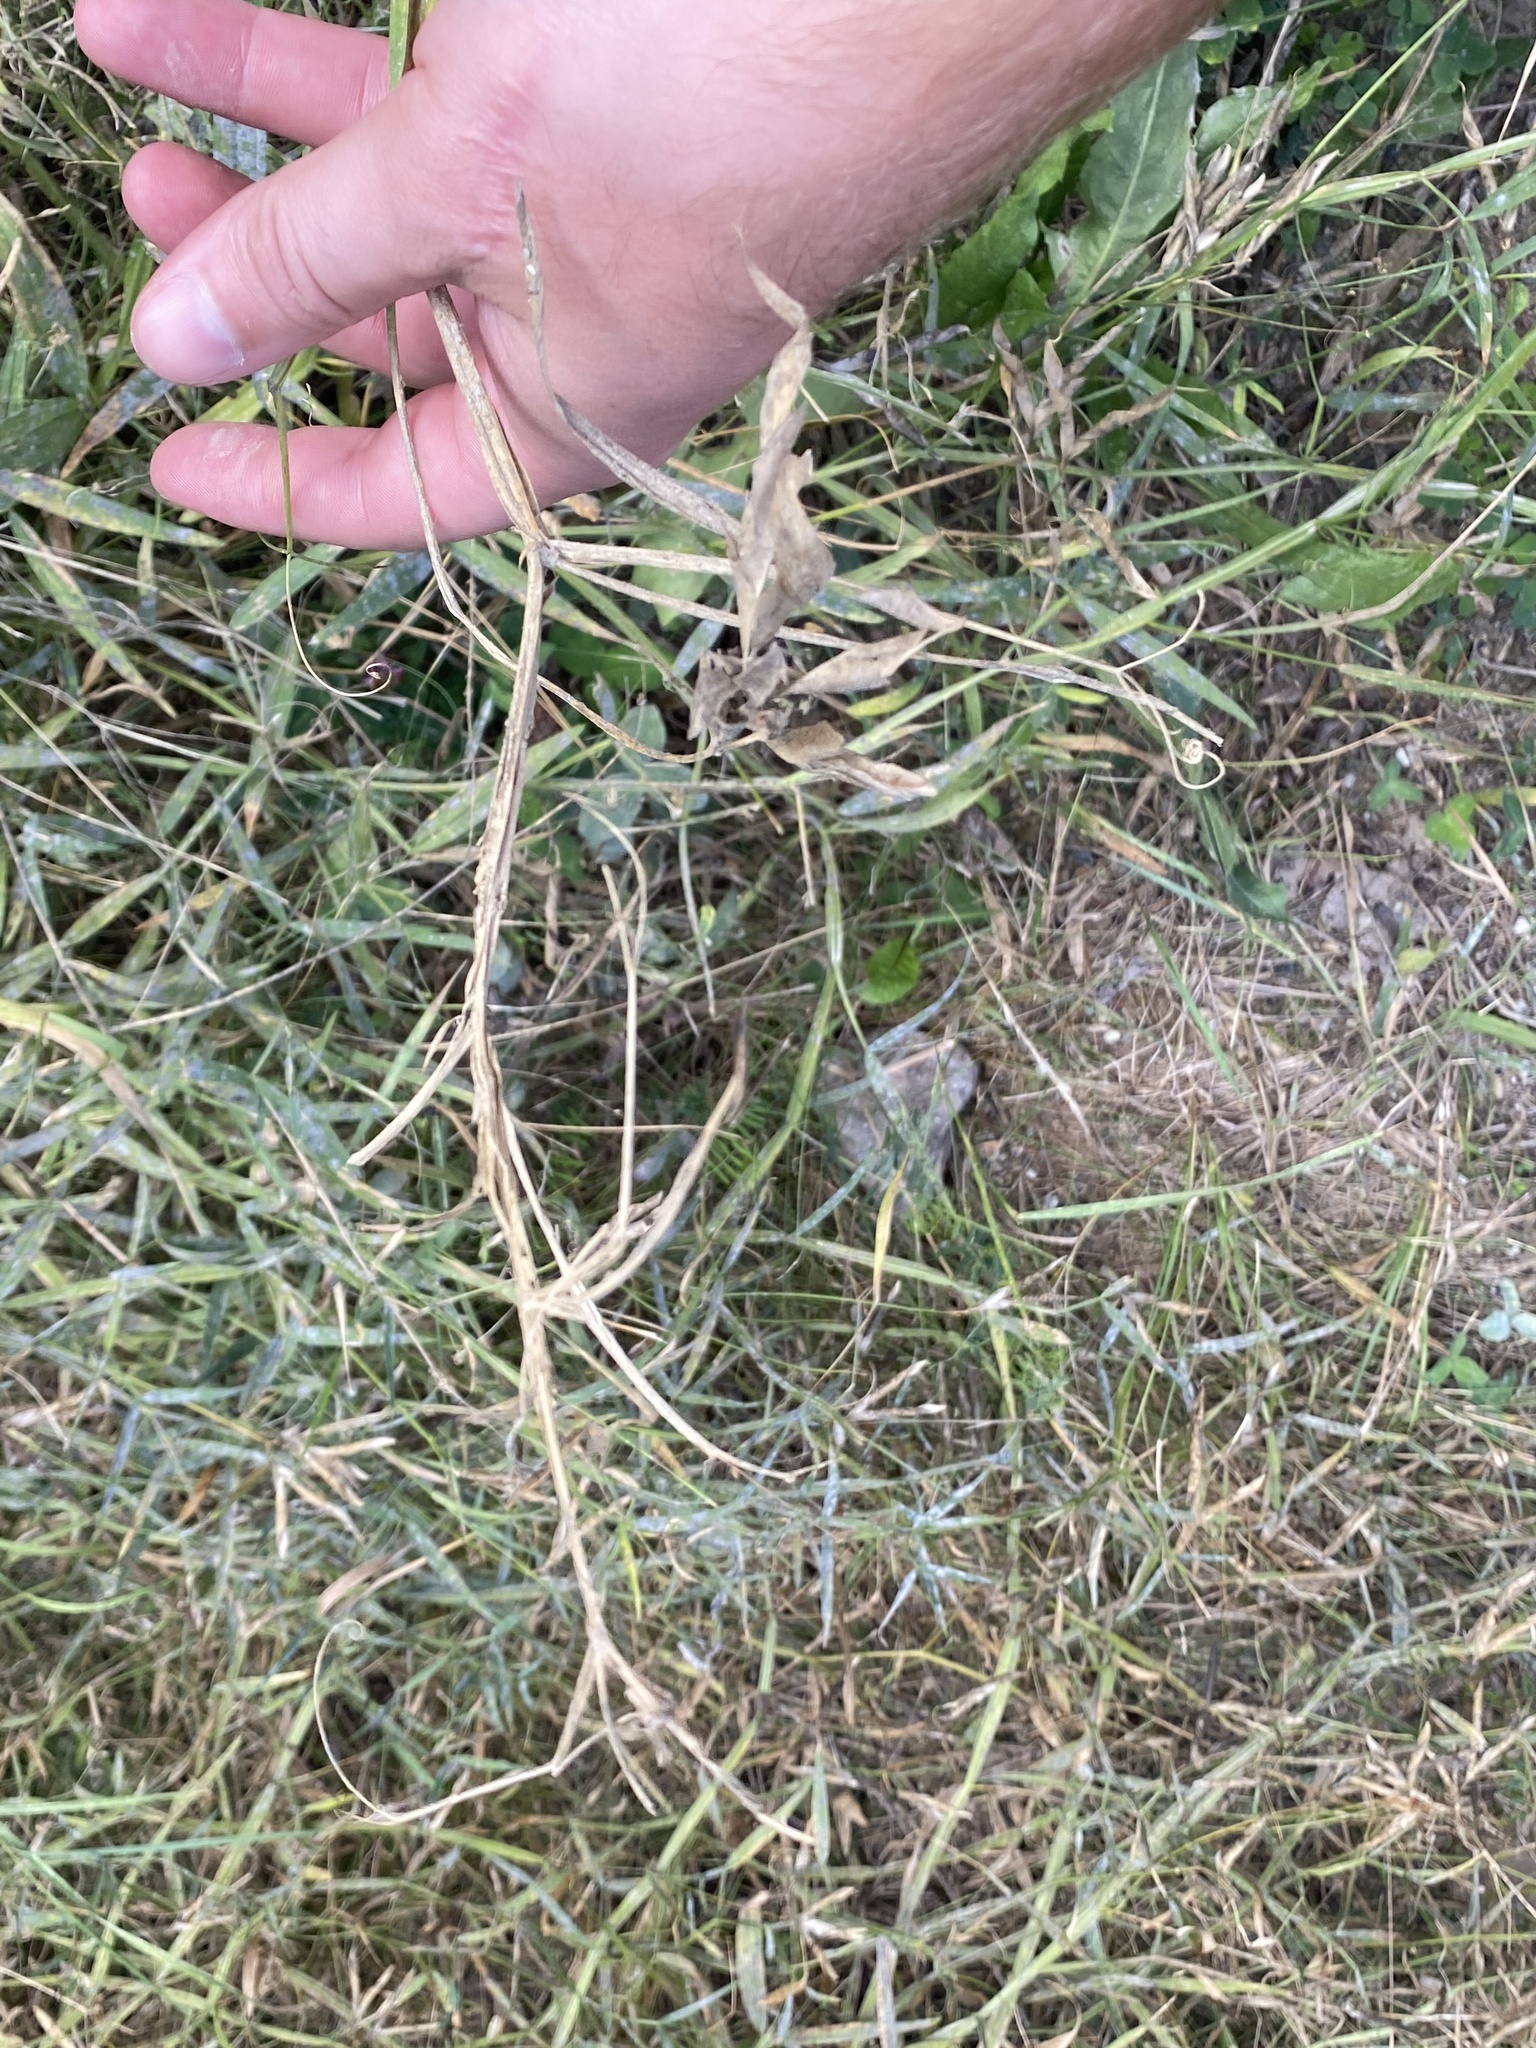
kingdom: Plantae
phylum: Tracheophyta
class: Magnoliopsida
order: Fabales
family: Fabaceae
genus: Lathyrus
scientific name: Lathyrus sylvestris
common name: Flat pea
